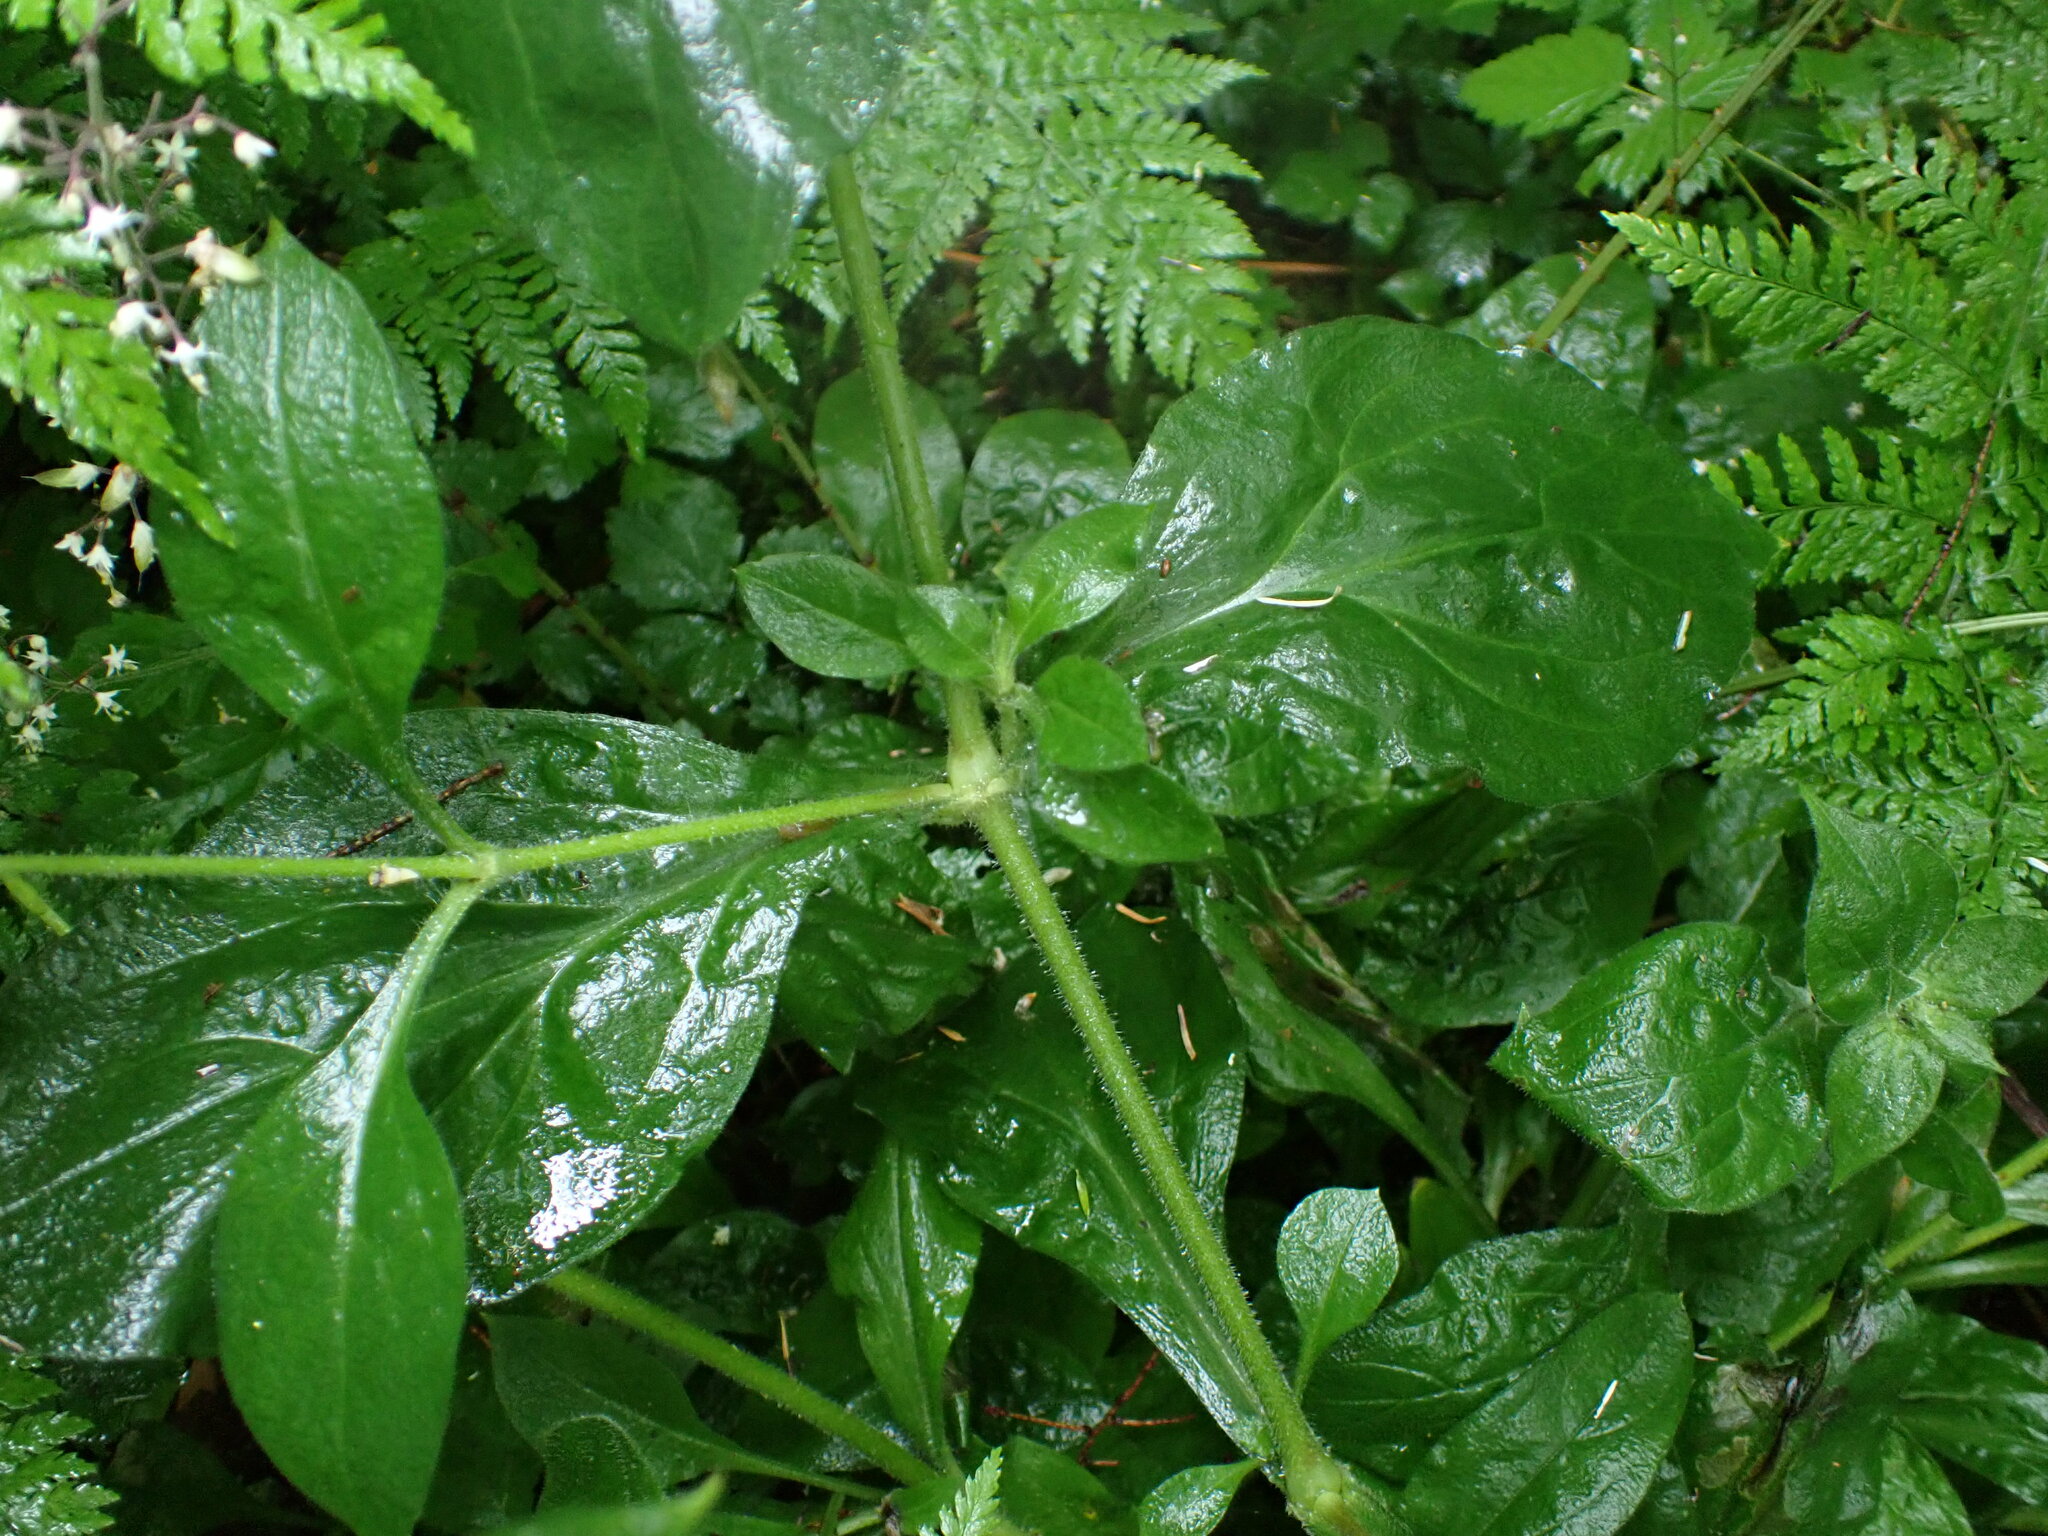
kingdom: Plantae
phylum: Tracheophyta
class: Magnoliopsida
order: Caryophyllales
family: Caryophyllaceae
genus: Silene
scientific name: Silene dioica
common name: Red campion
